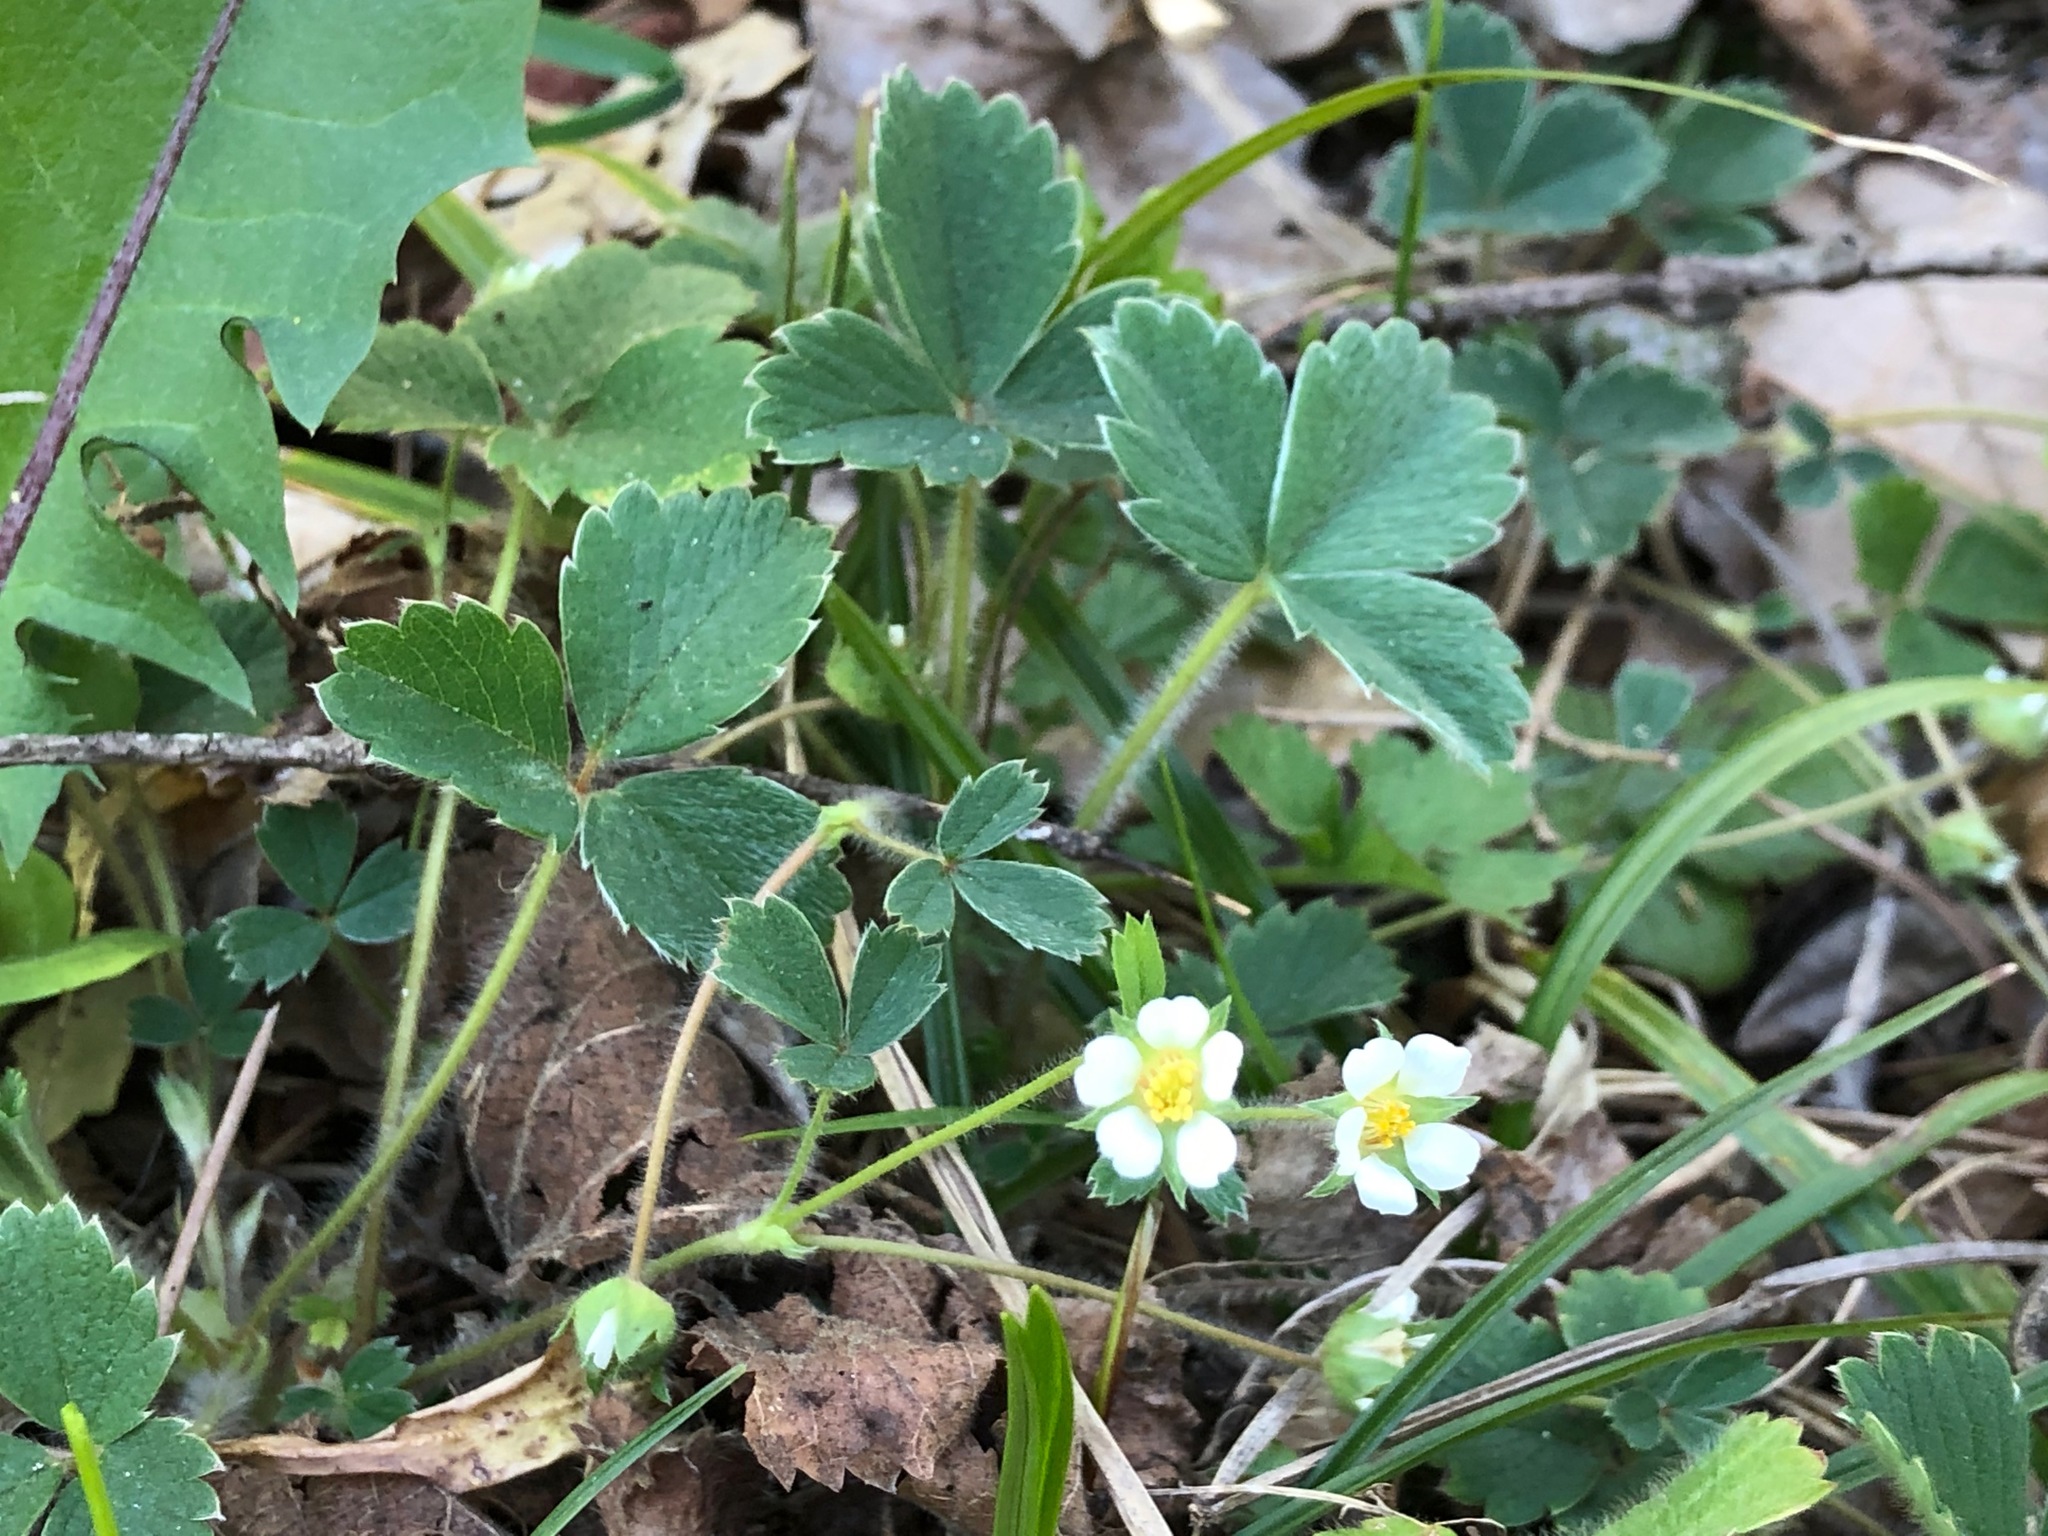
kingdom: Plantae
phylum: Tracheophyta
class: Magnoliopsida
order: Rosales
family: Rosaceae
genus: Potentilla
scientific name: Potentilla sterilis
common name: Barren strawberry
